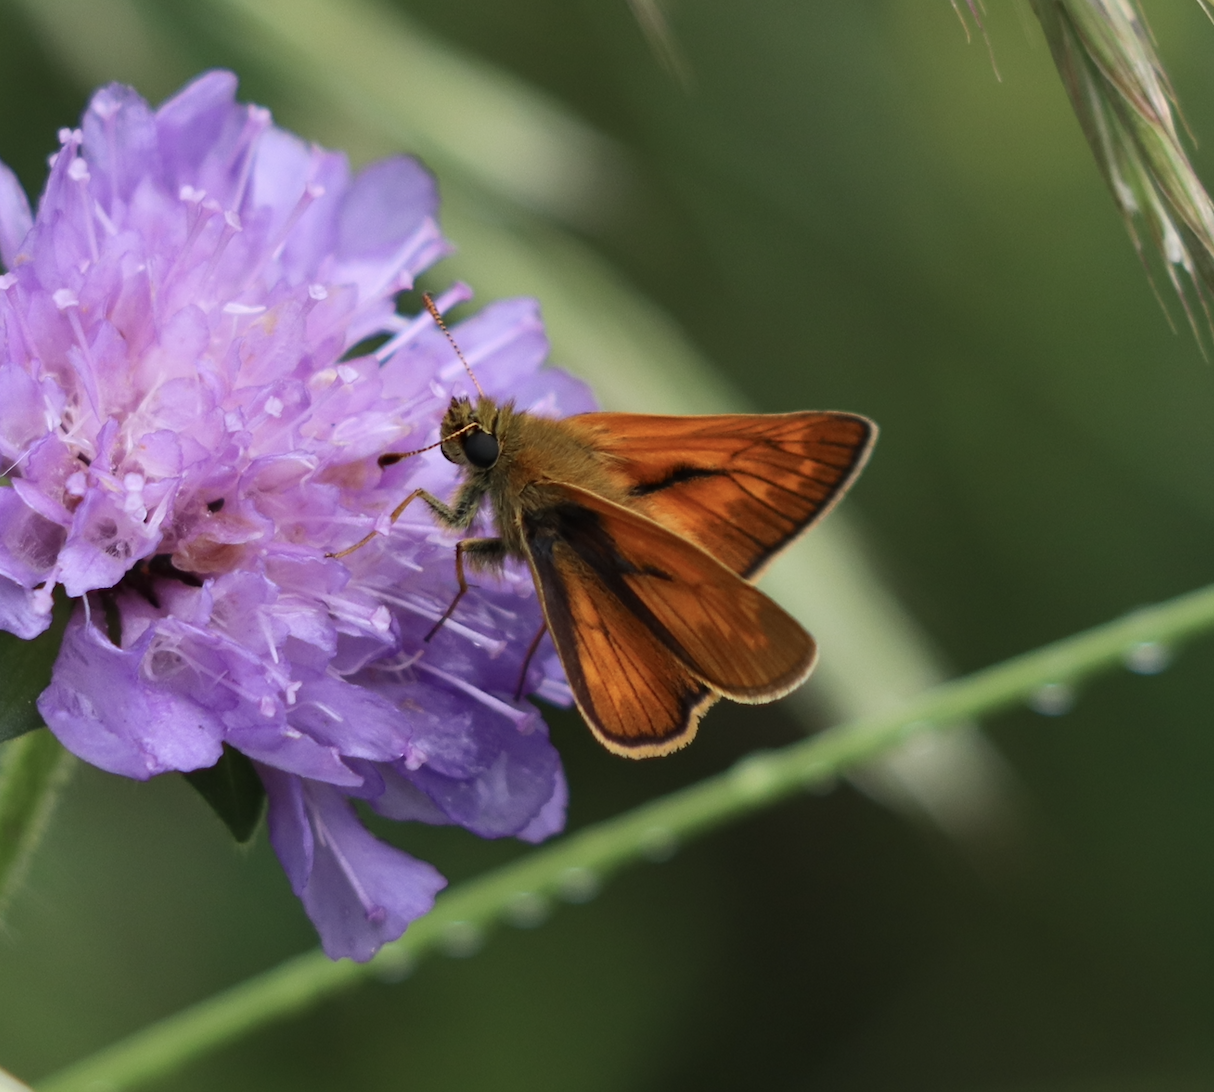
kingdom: Animalia
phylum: Arthropoda
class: Insecta
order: Lepidoptera
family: Hesperiidae
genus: Ochlodes
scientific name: Ochlodes venata
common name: Large skipper
